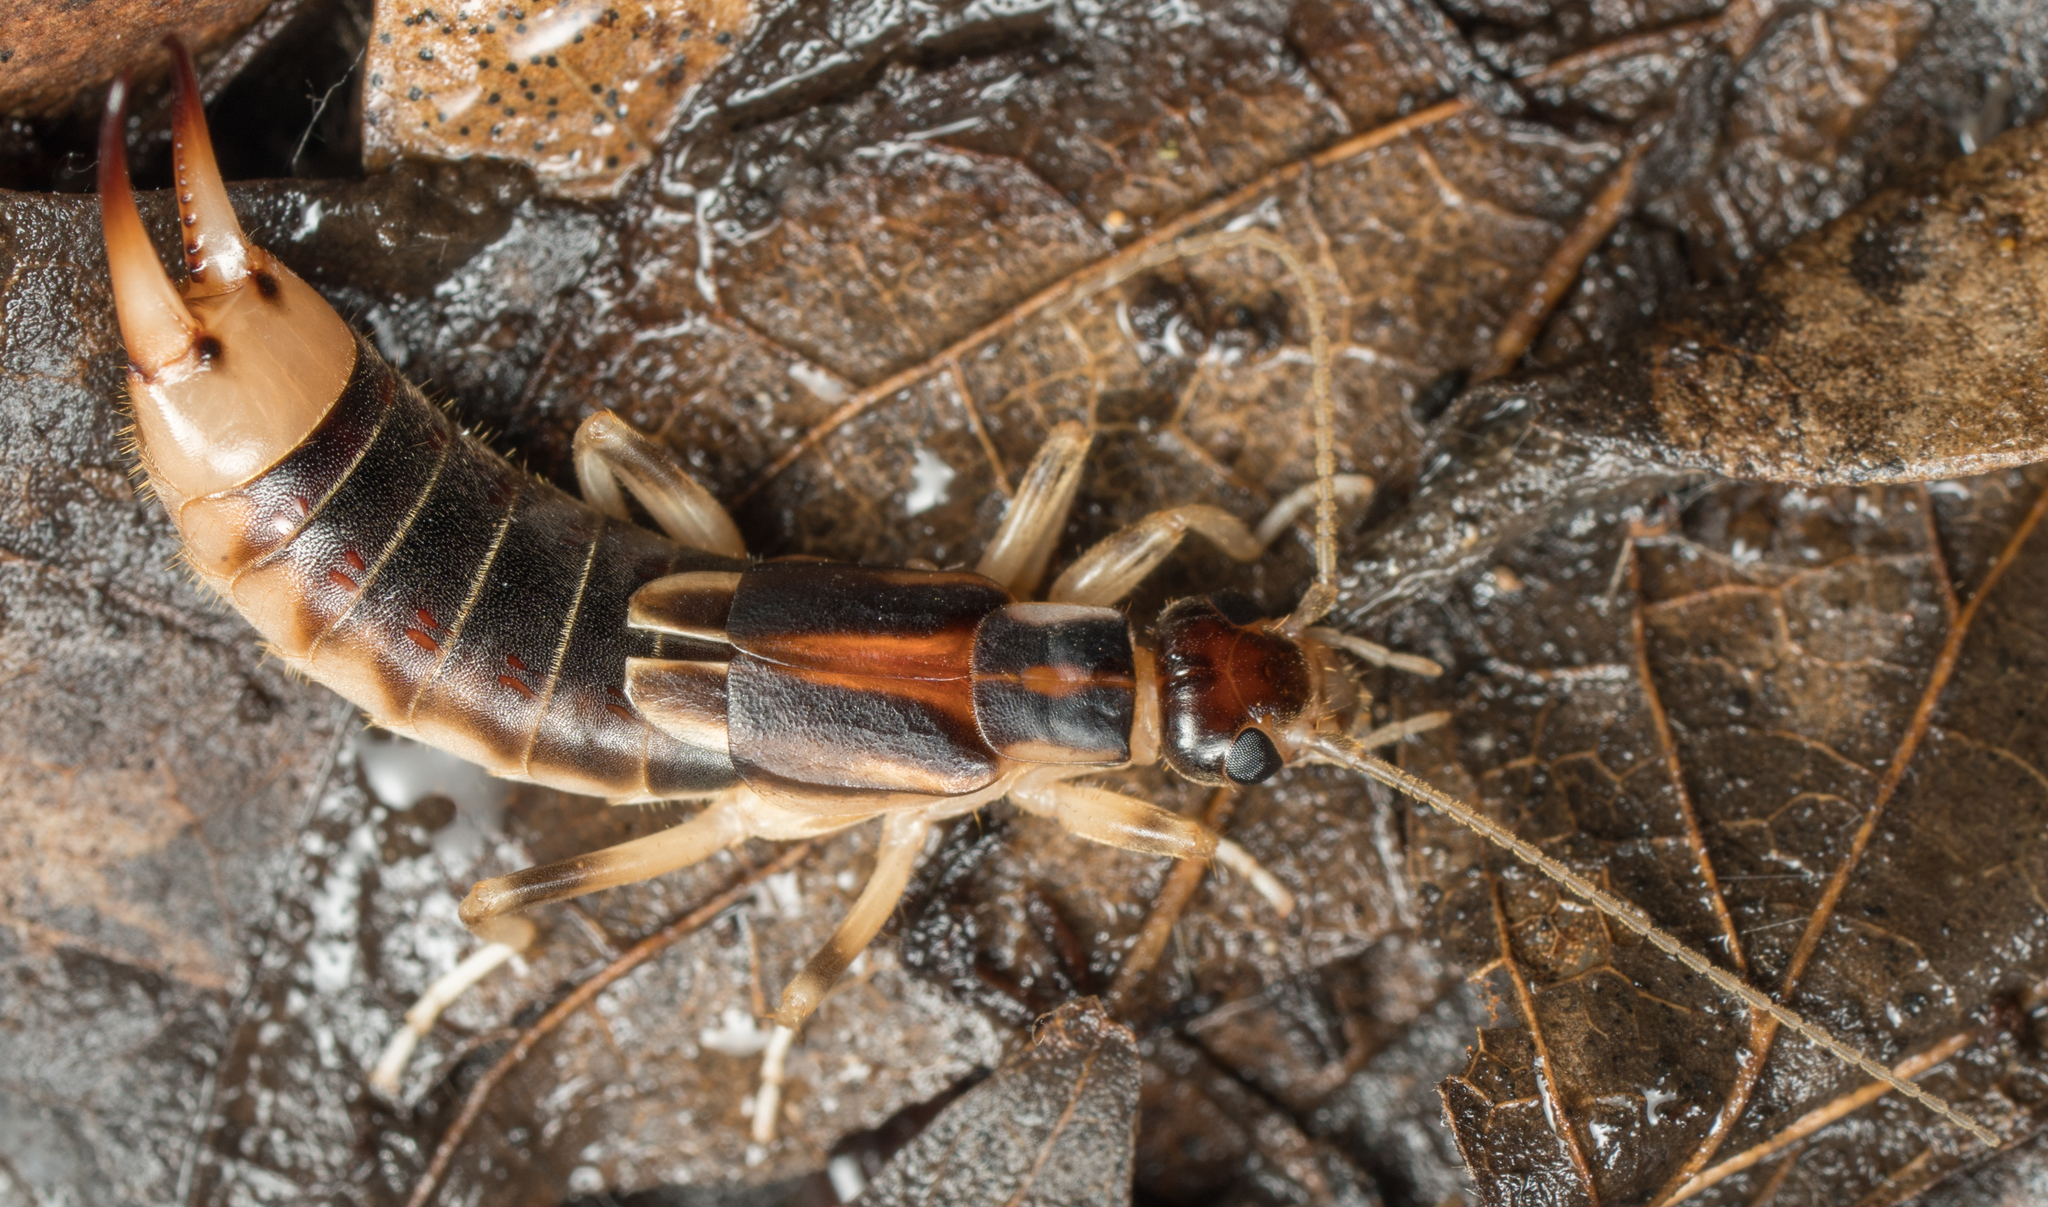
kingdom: Animalia
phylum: Arthropoda
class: Insecta
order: Dermaptera
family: Labiduridae
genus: Labidura
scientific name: Labidura riparia
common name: Striped earwig
